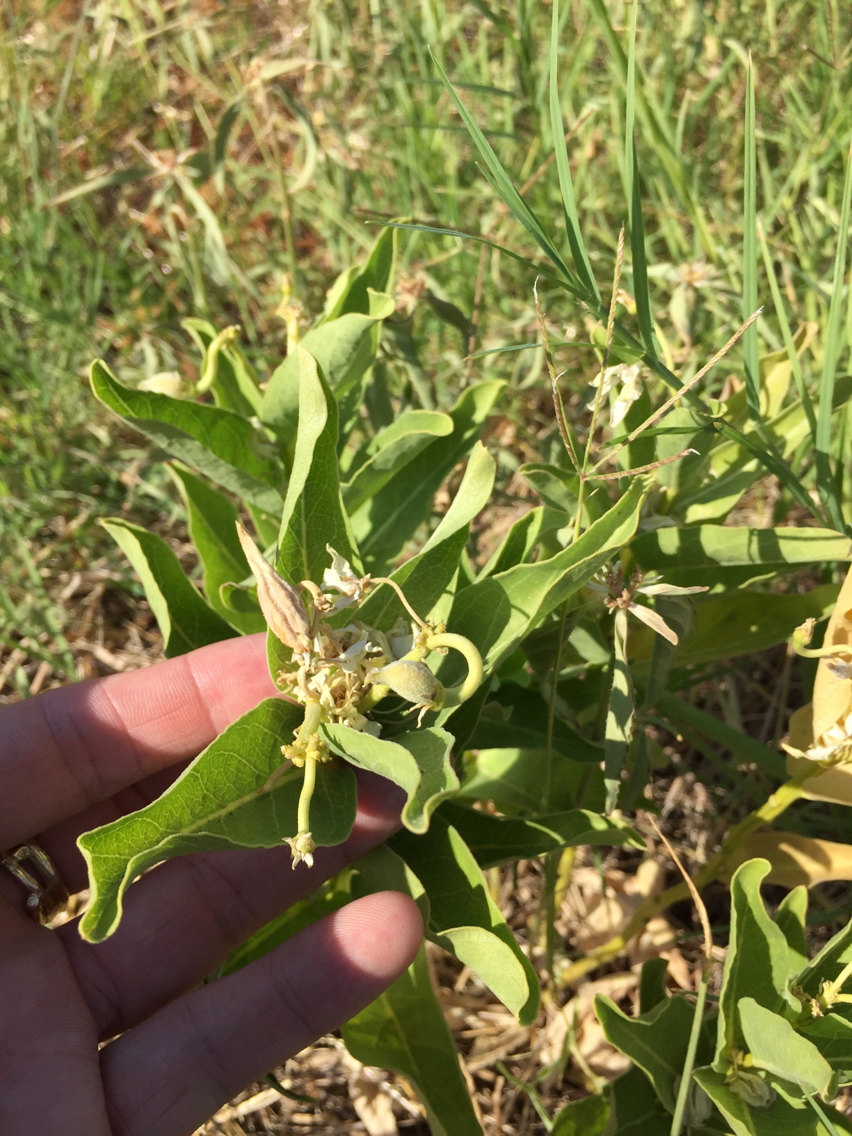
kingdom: Plantae
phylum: Tracheophyta
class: Magnoliopsida
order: Gentianales
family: Apocynaceae
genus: Asclepias
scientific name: Asclepias viridis
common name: Antelope-horns
